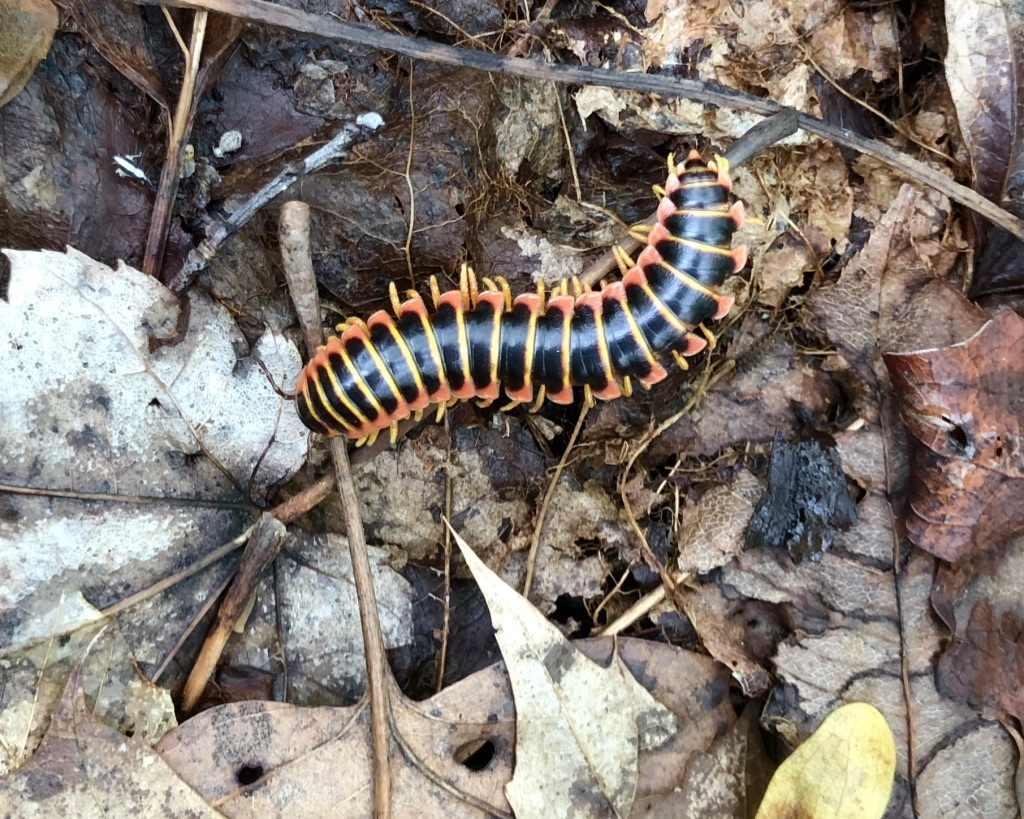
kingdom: Animalia
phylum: Arthropoda
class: Diplopoda
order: Polydesmida
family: Xystodesmidae
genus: Apheloria
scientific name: Apheloria virginiensis
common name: Black-and-gold flat millipede
